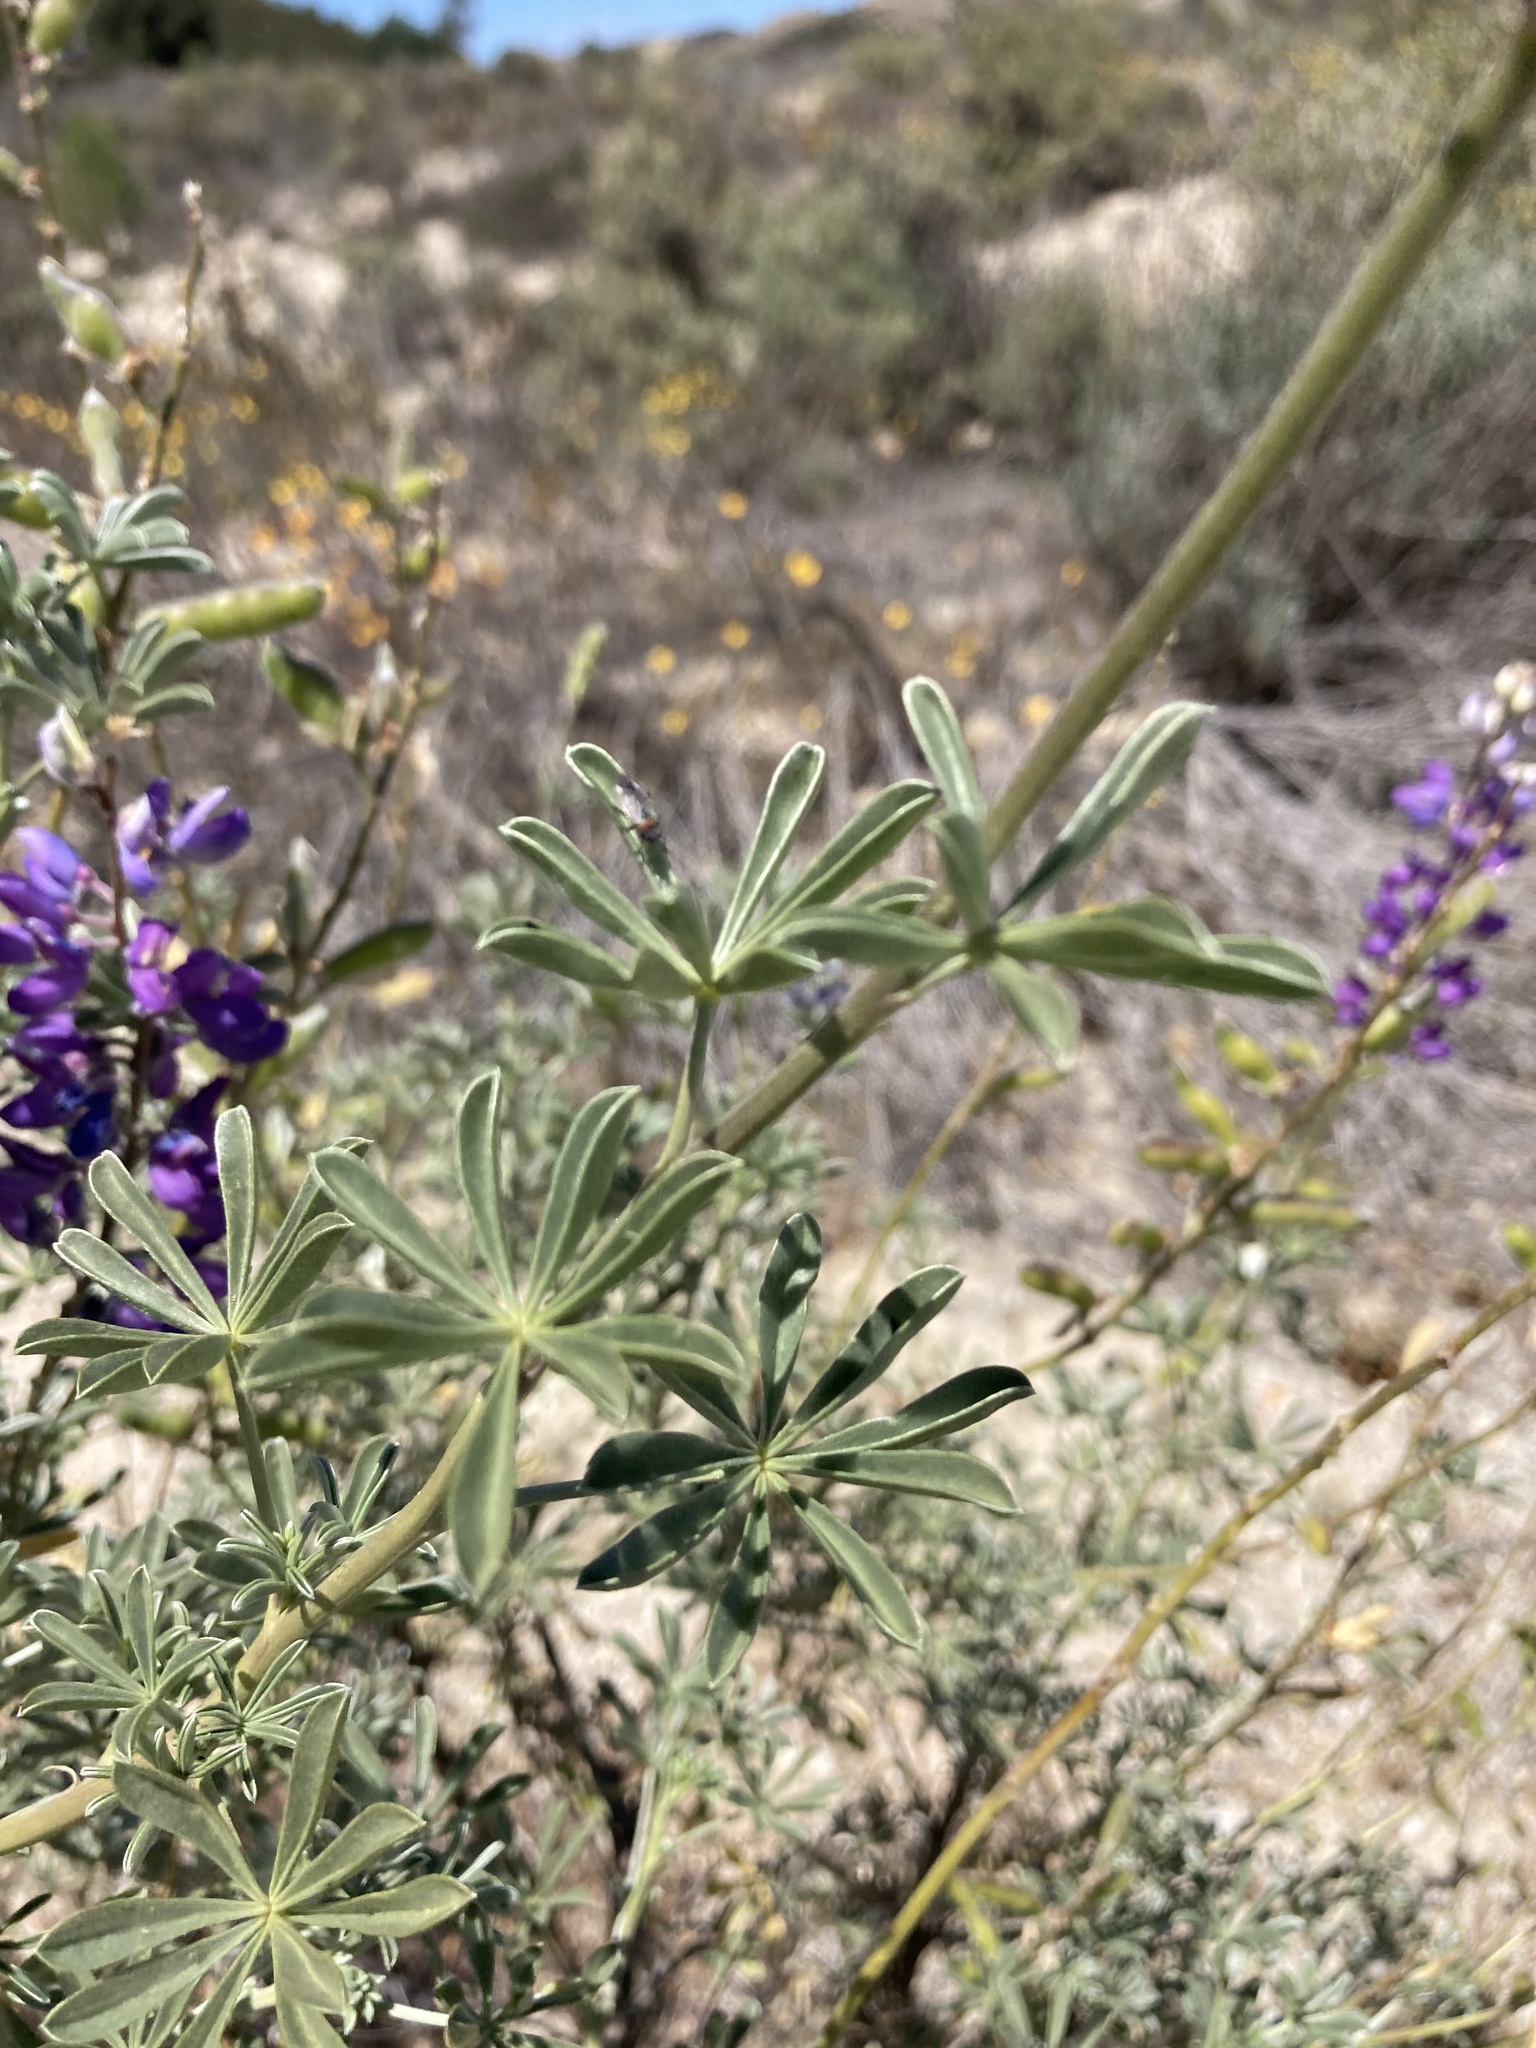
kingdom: Plantae
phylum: Tracheophyta
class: Magnoliopsida
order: Fabales
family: Fabaceae
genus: Lupinus
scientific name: Lupinus albifrons
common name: Foothill lupine
